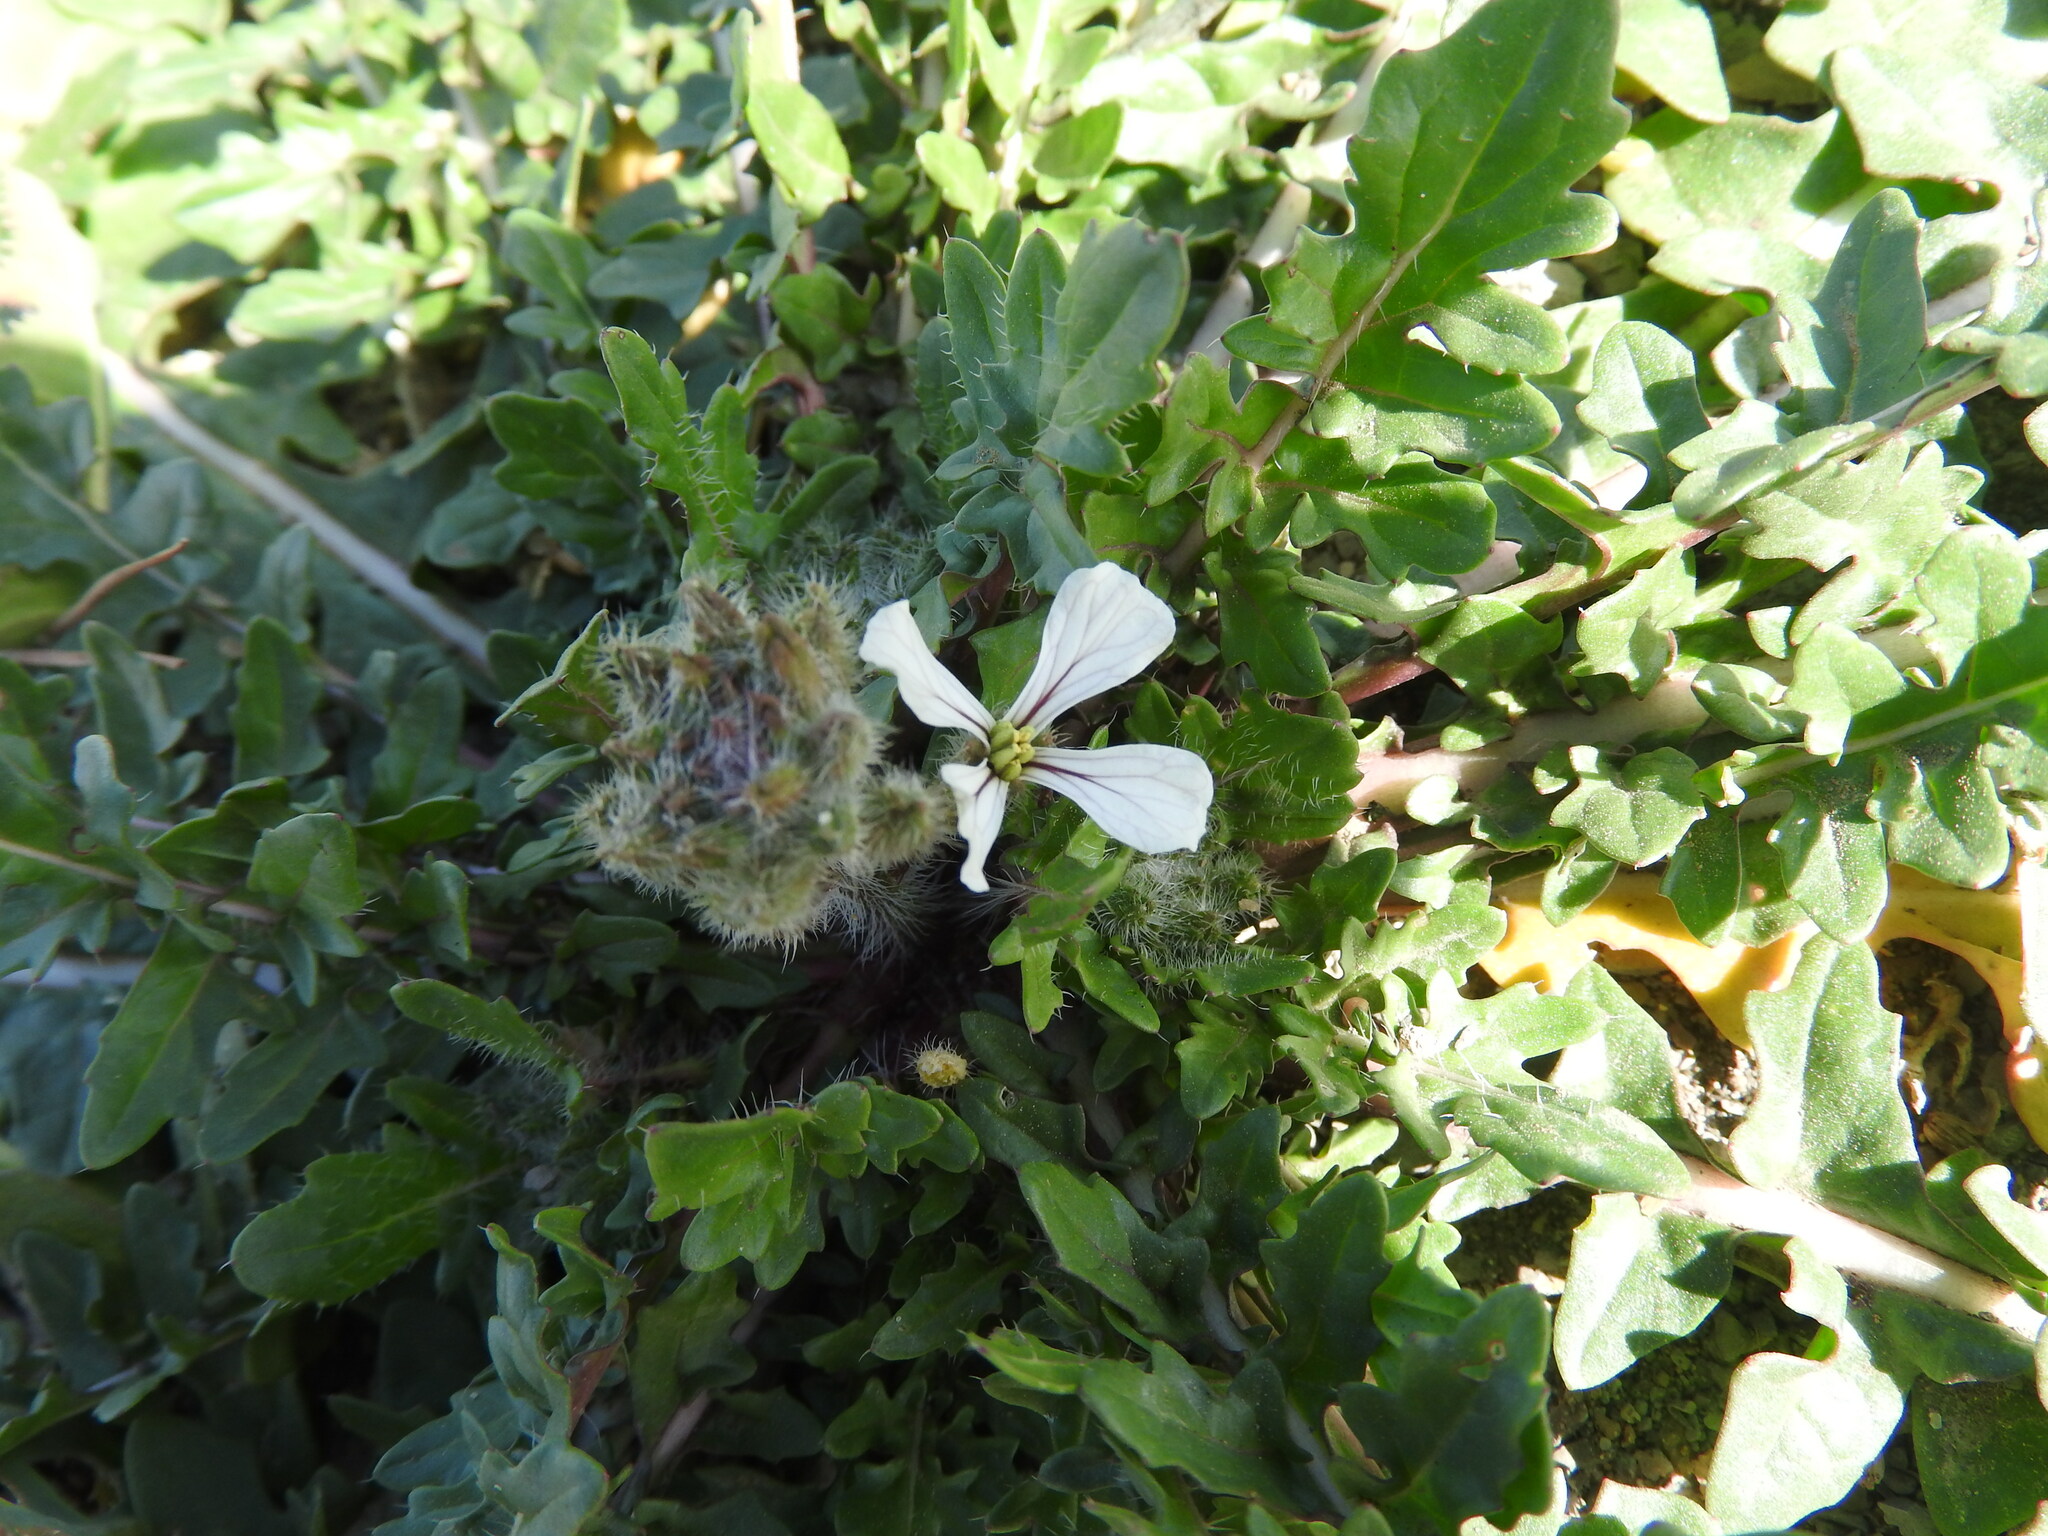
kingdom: Plantae
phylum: Tracheophyta
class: Magnoliopsida
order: Brassicales
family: Brassicaceae
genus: Eruca
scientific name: Eruca pinnatifida
